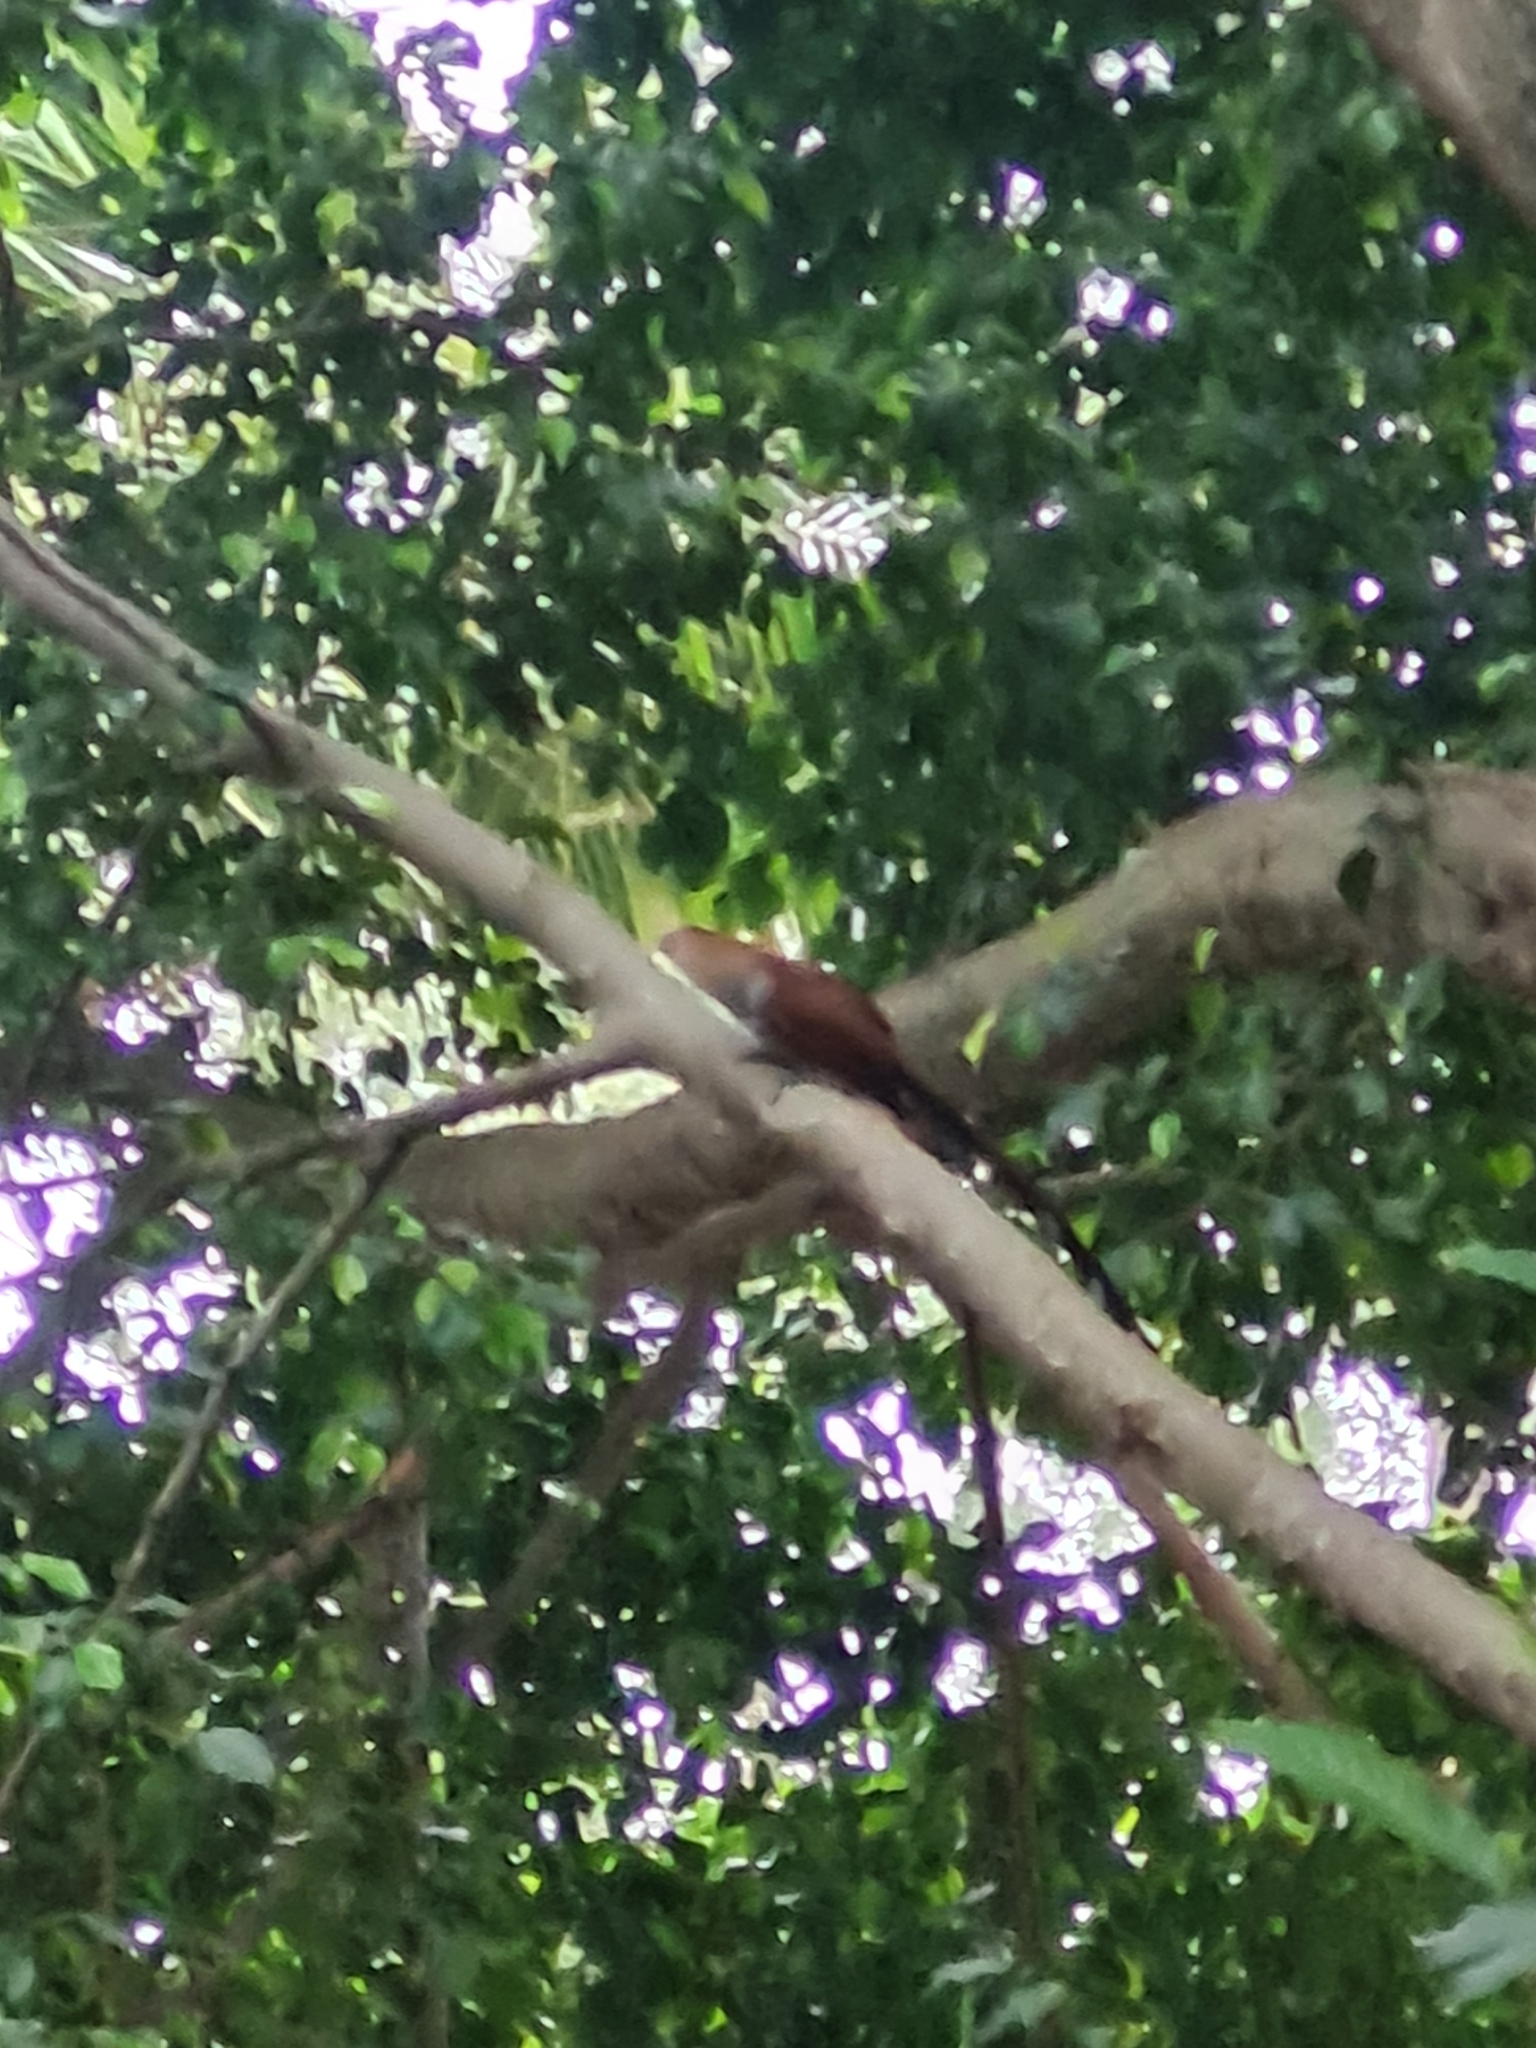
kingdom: Animalia
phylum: Chordata
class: Aves
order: Cuculiformes
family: Cuculidae
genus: Piaya
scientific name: Piaya cayana
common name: Squirrel cuckoo
